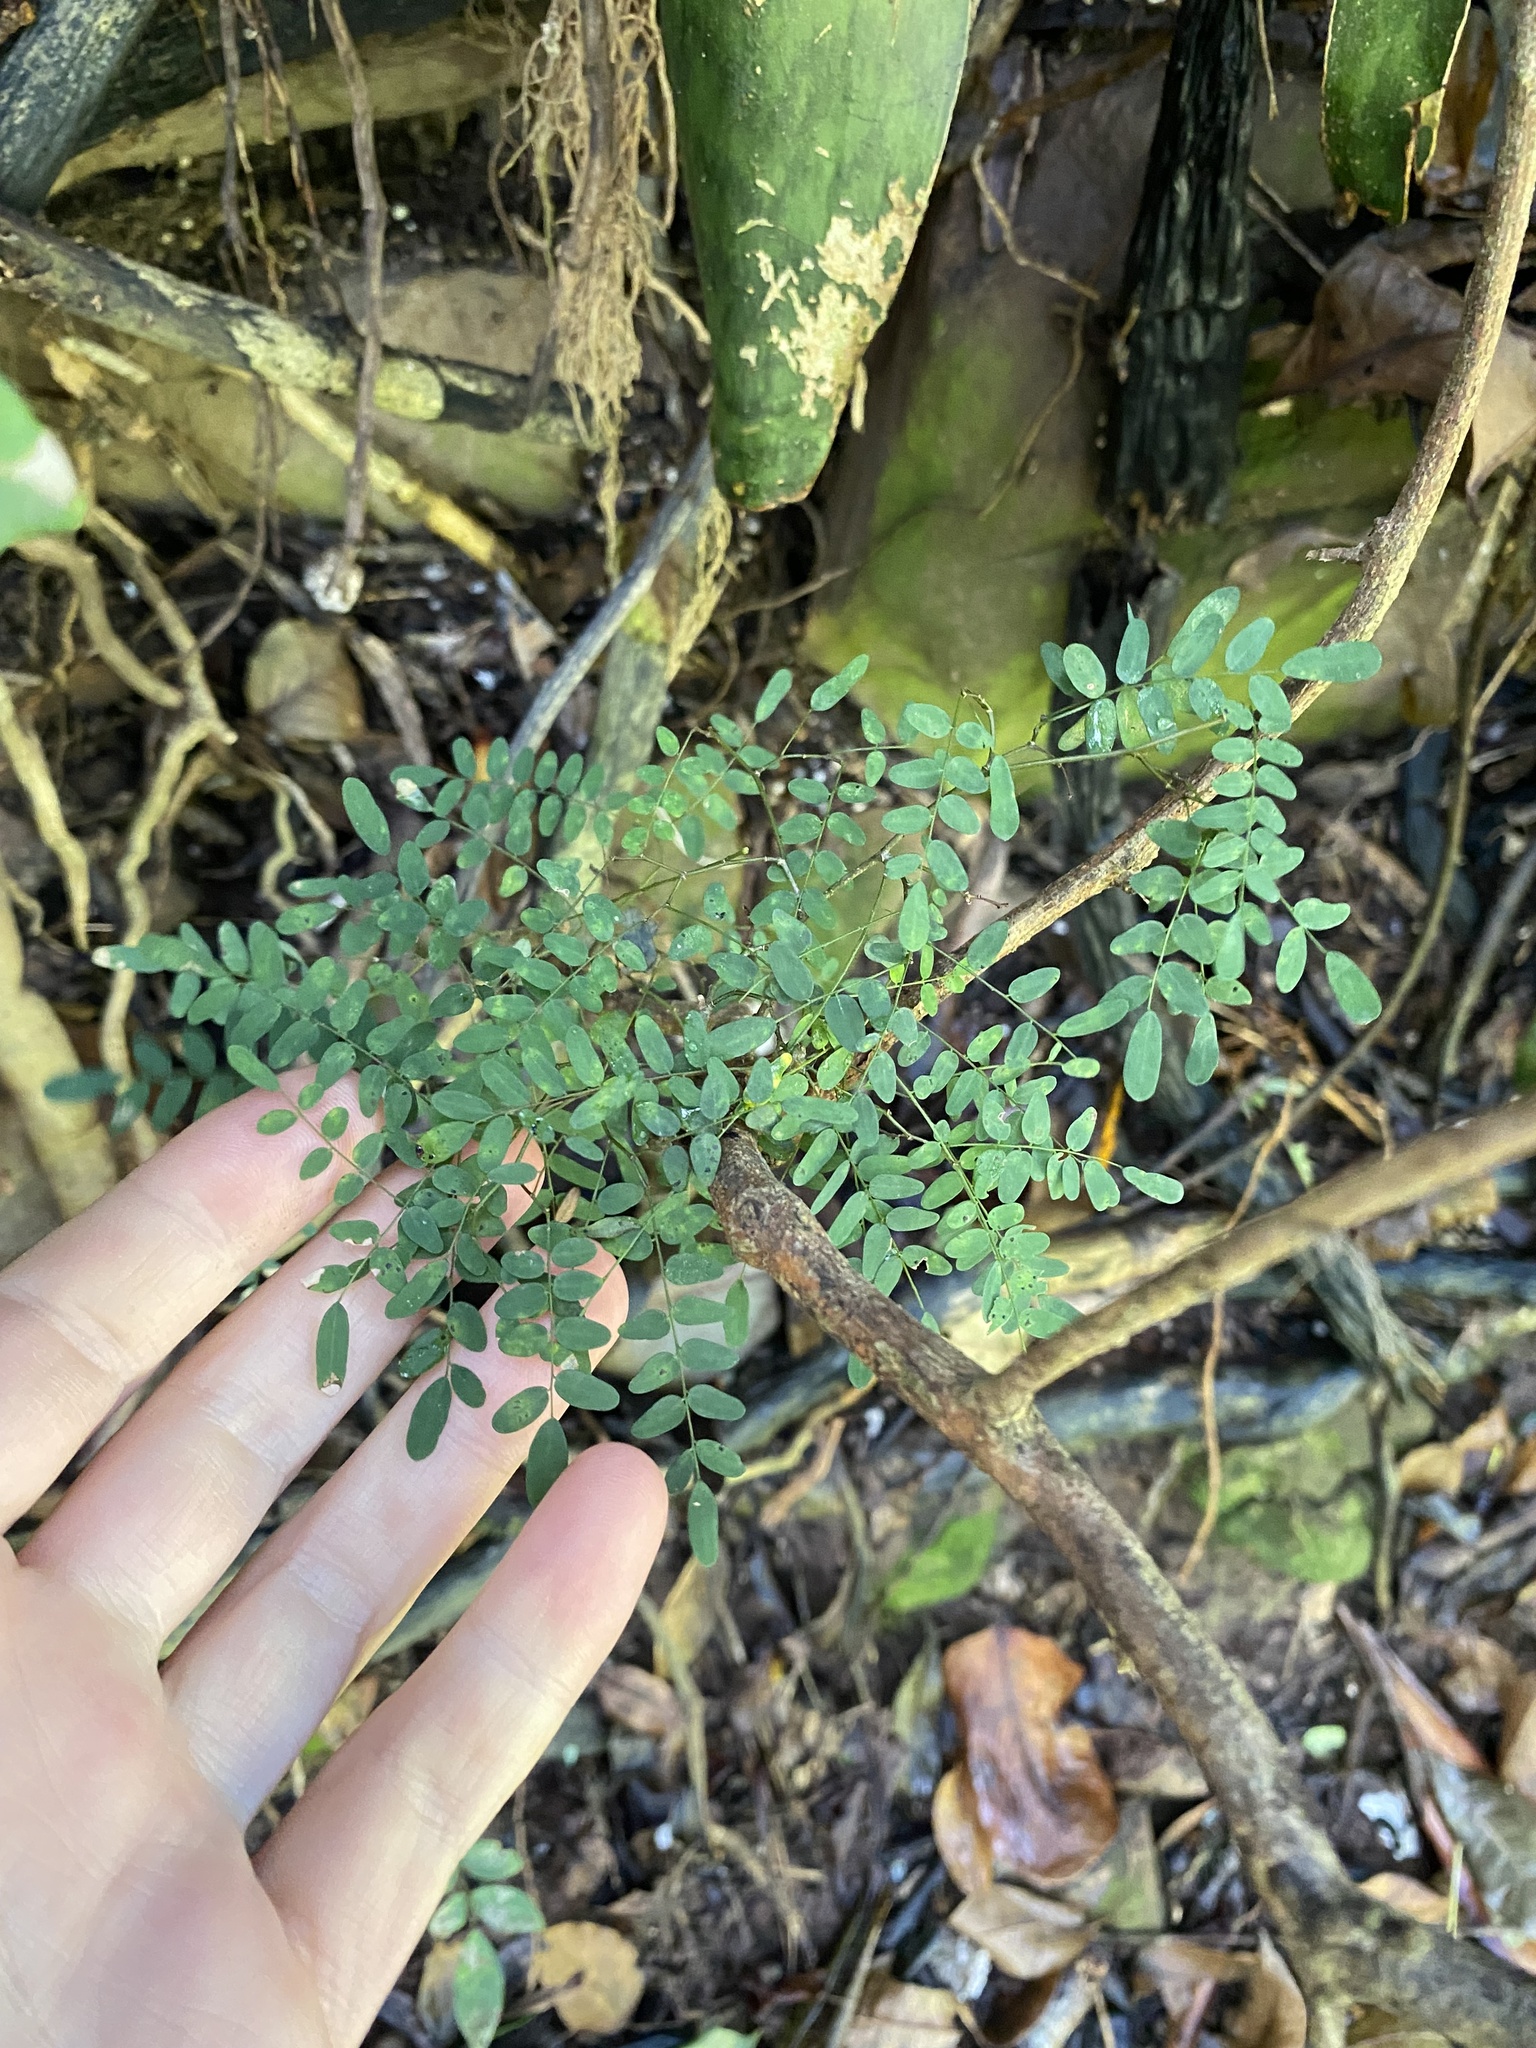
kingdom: Plantae
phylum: Tracheophyta
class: Magnoliopsida
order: Fabales
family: Fabaceae
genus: Dalbergia
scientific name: Dalbergia armata
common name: Hluhluwe climber
